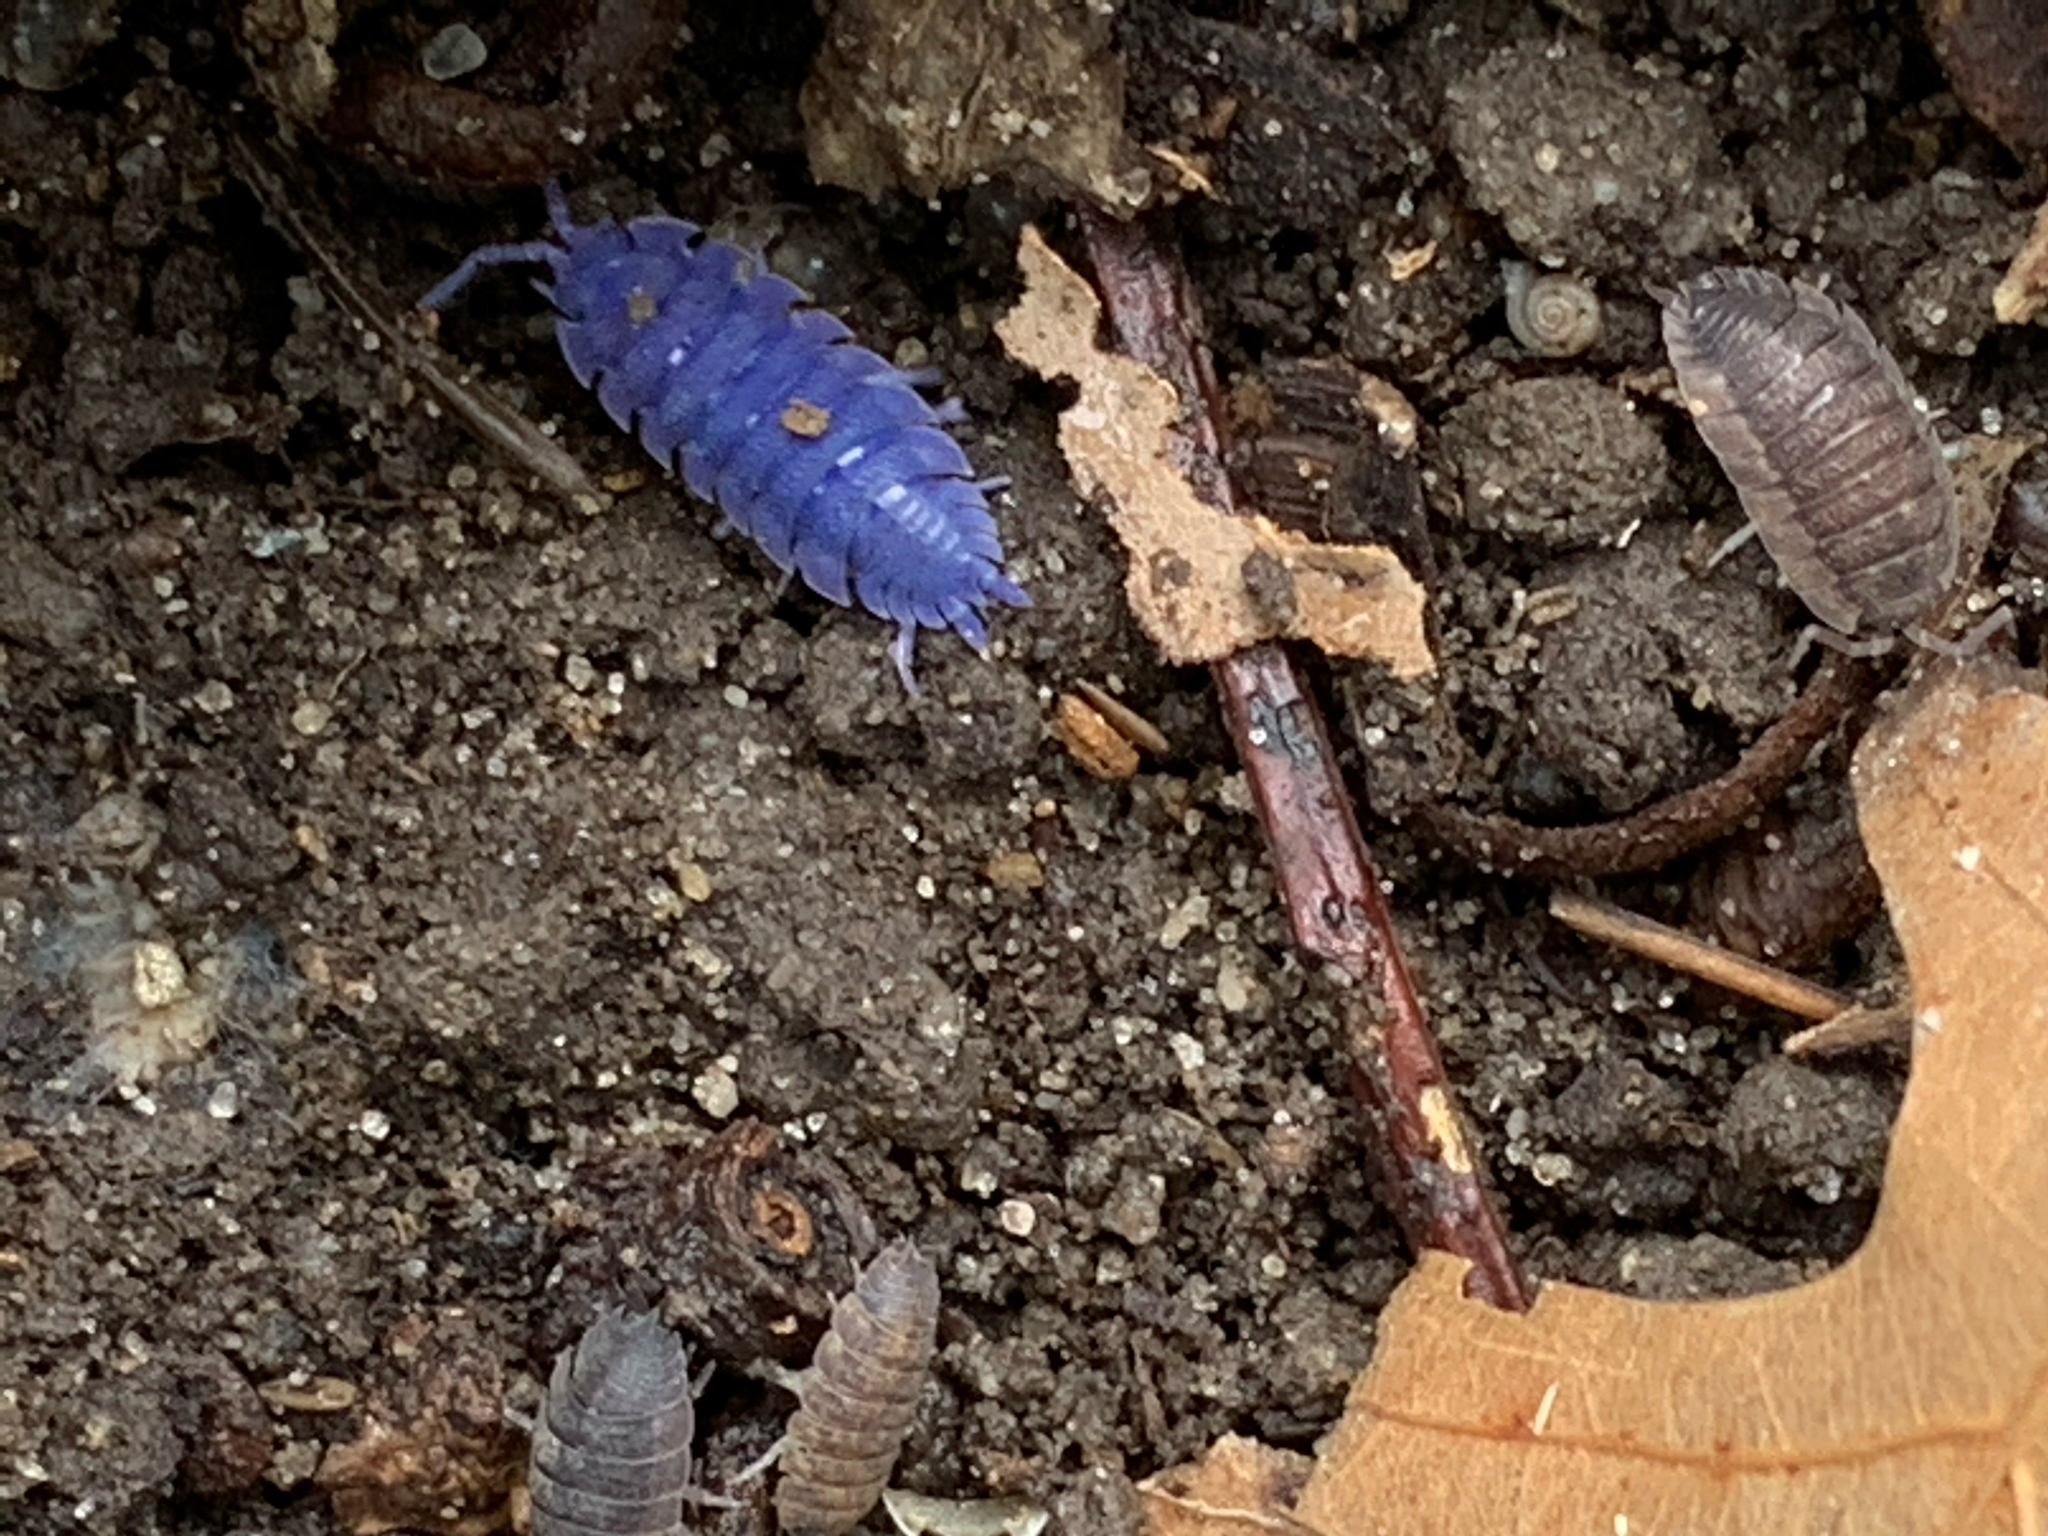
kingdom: Animalia
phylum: Arthropoda
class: Malacostraca
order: Isopoda
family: Porcellionidae
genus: Porcellio
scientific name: Porcellio scaber
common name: Common rough woodlouse
